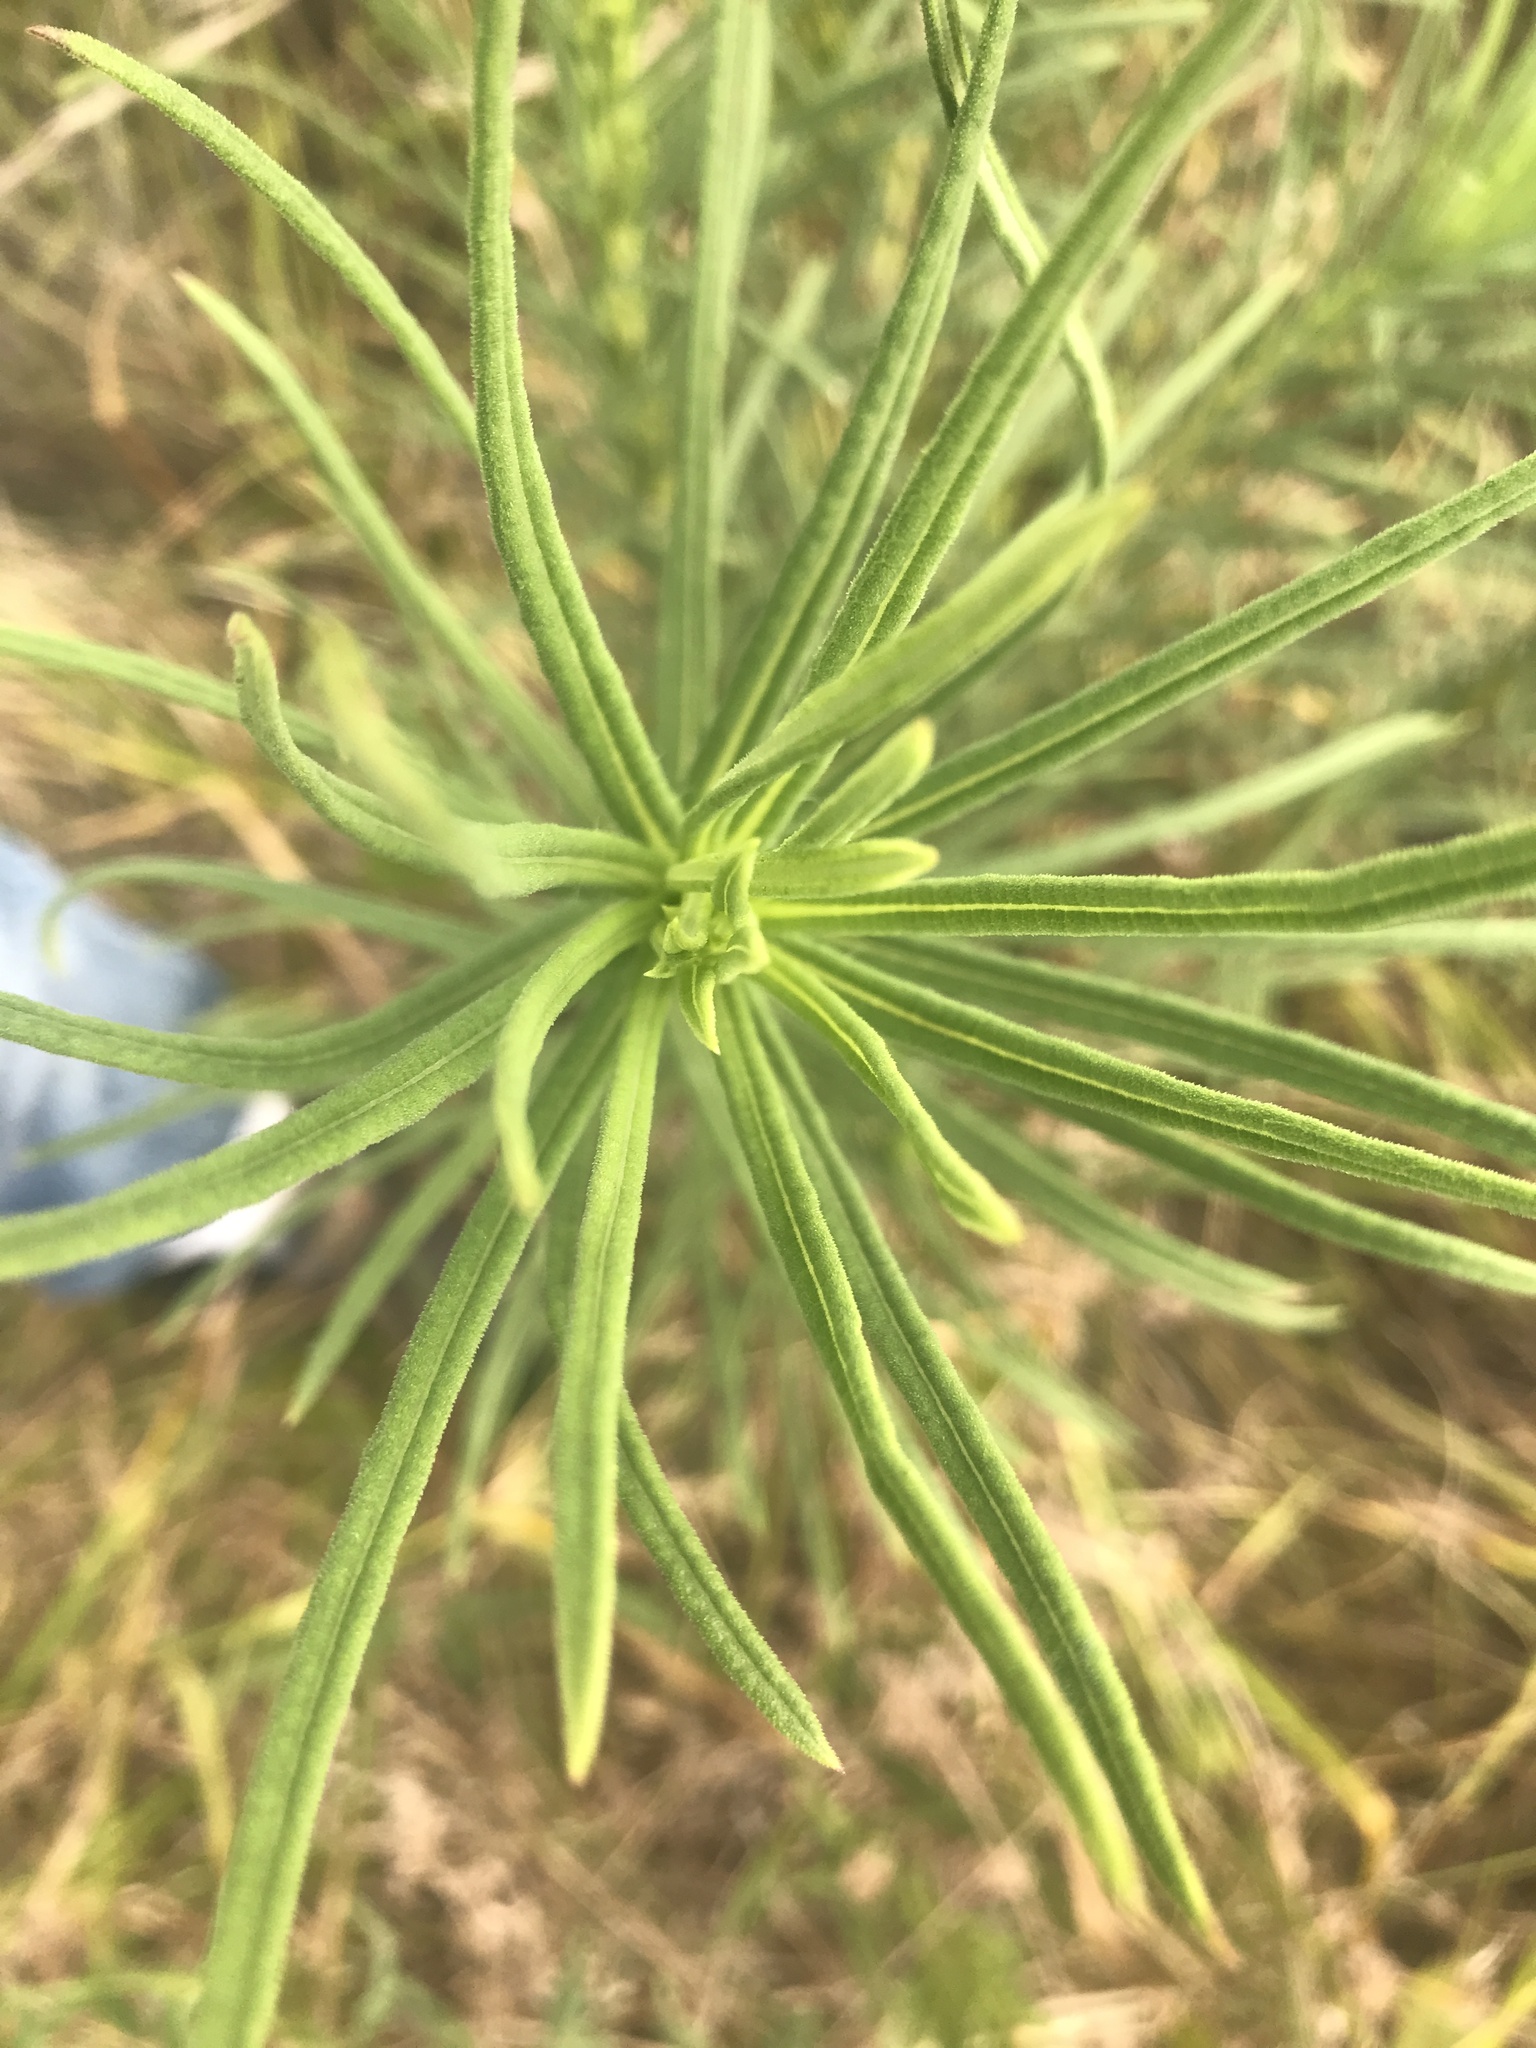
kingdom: Plantae
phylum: Tracheophyta
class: Magnoliopsida
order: Asterales
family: Asteraceae
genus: Helianthus
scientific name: Helianthus angustifolius
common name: Swamp sunflower
